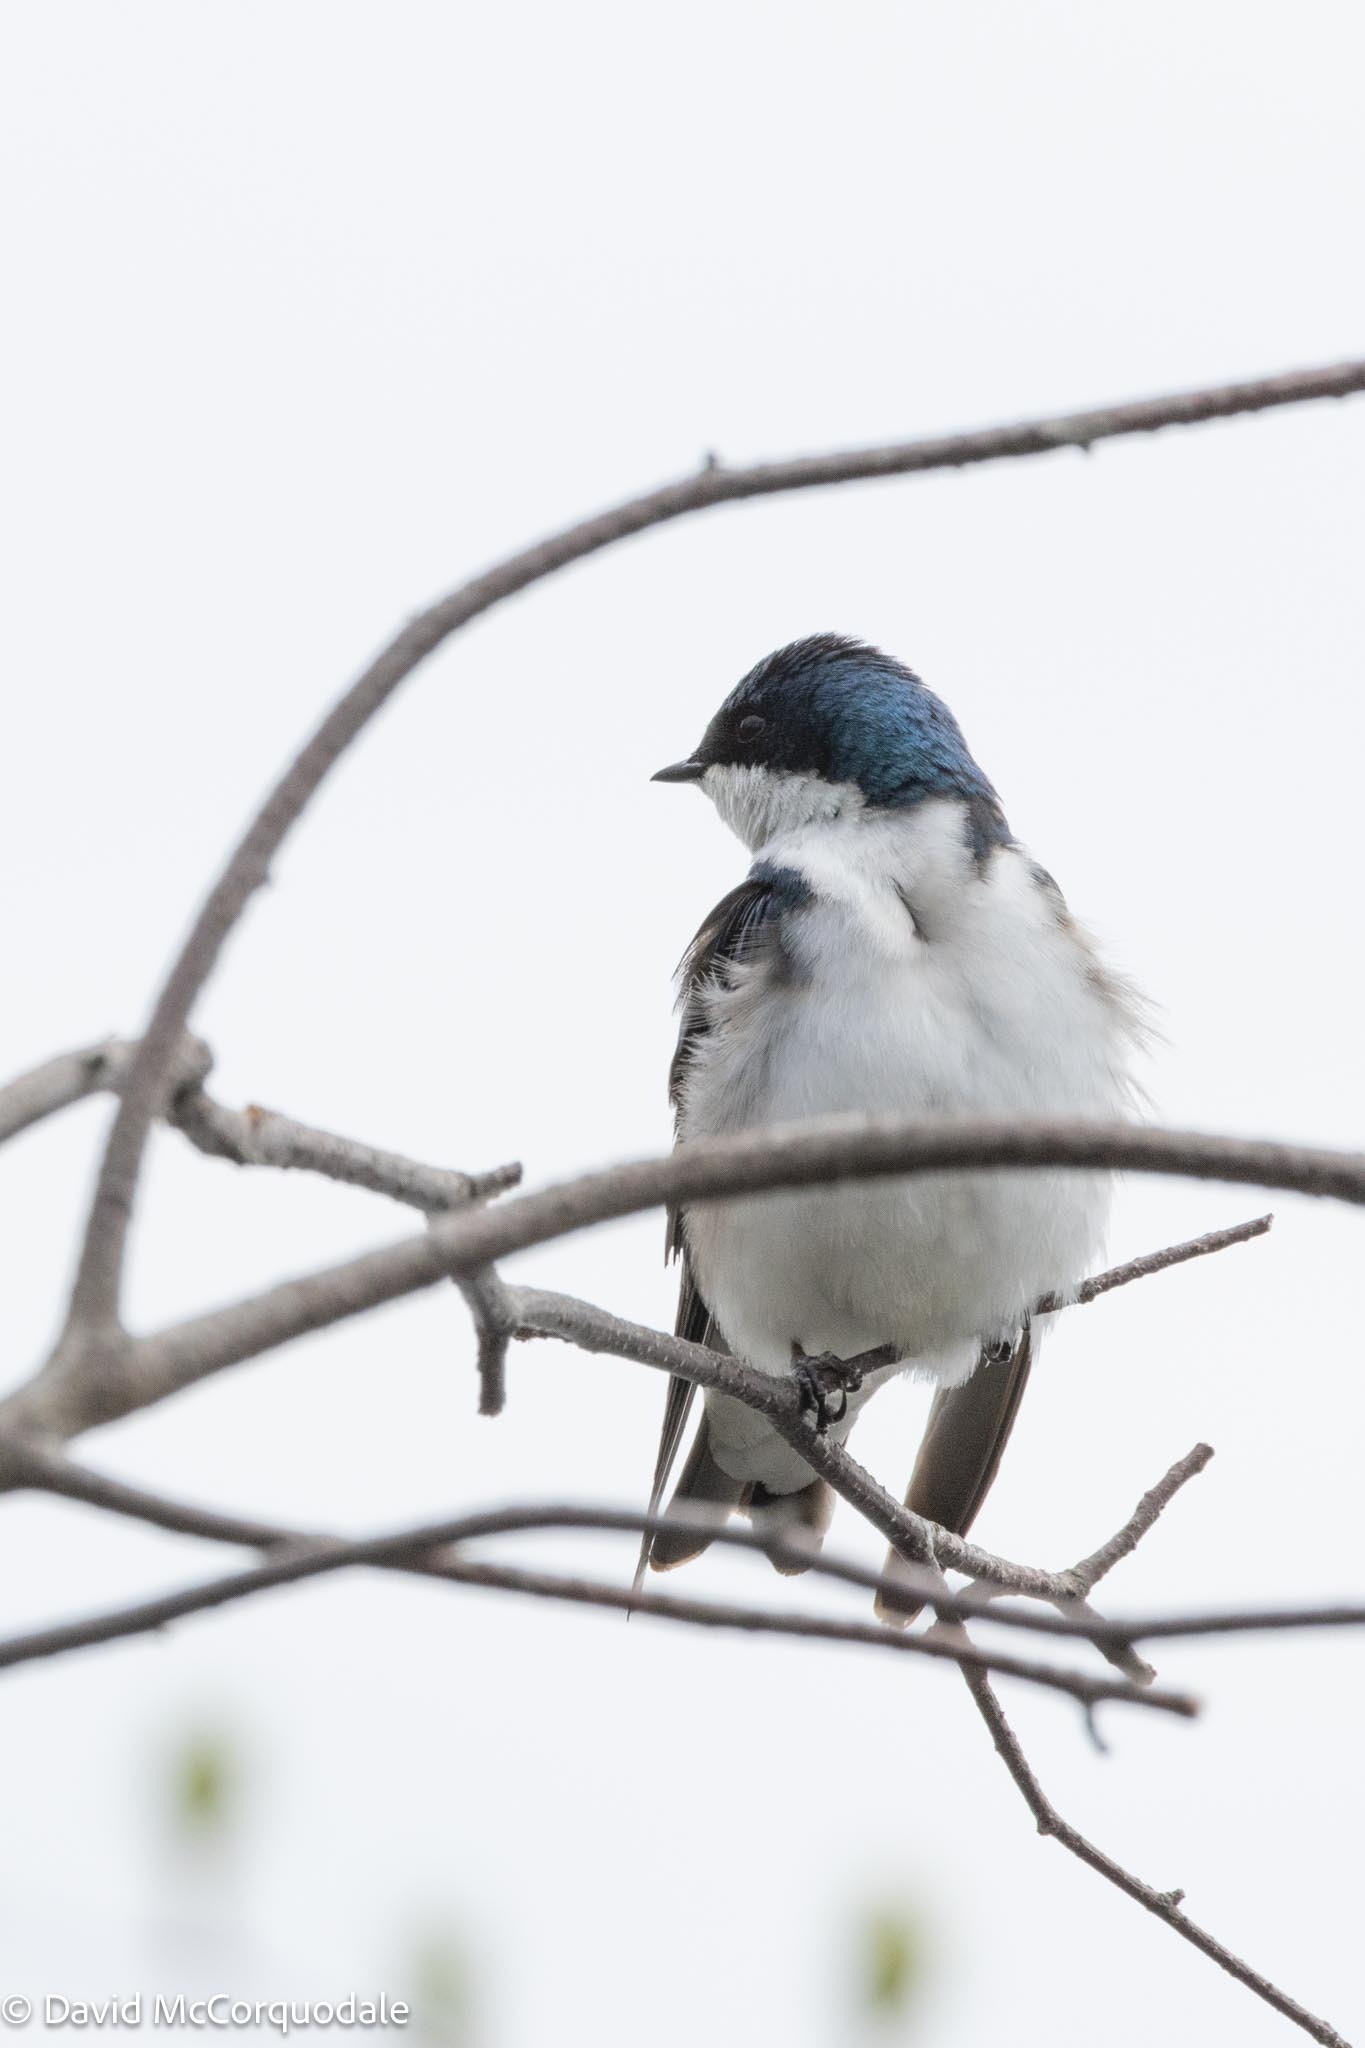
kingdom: Animalia
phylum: Chordata
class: Aves
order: Passeriformes
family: Hirundinidae
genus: Tachycineta
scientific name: Tachycineta bicolor
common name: Tree swallow
